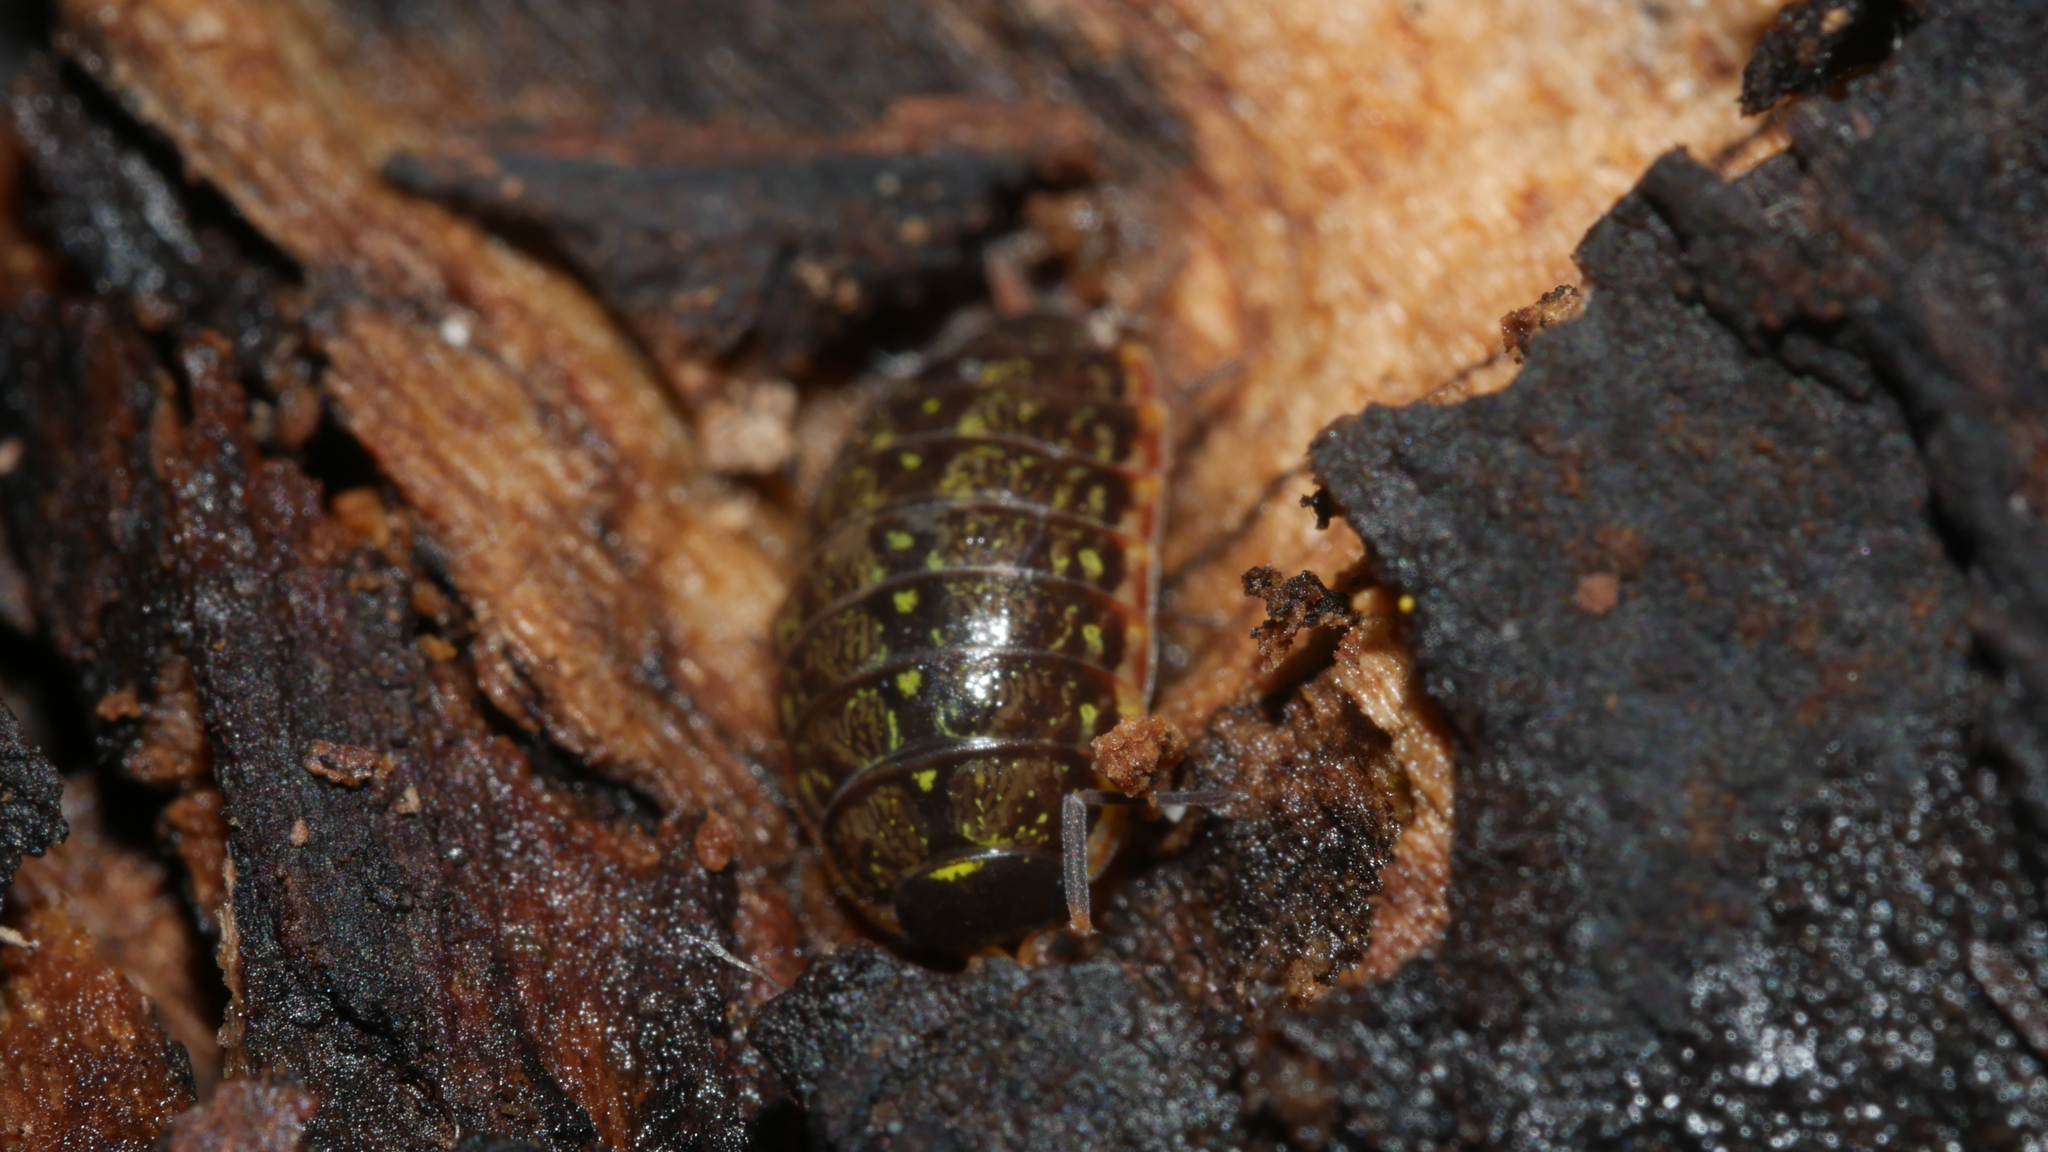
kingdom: Animalia
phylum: Arthropoda
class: Malacostraca
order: Isopoda
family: Philosciidae
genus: Philoscia
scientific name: Philoscia muscorum
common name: Common striped woodlouse
